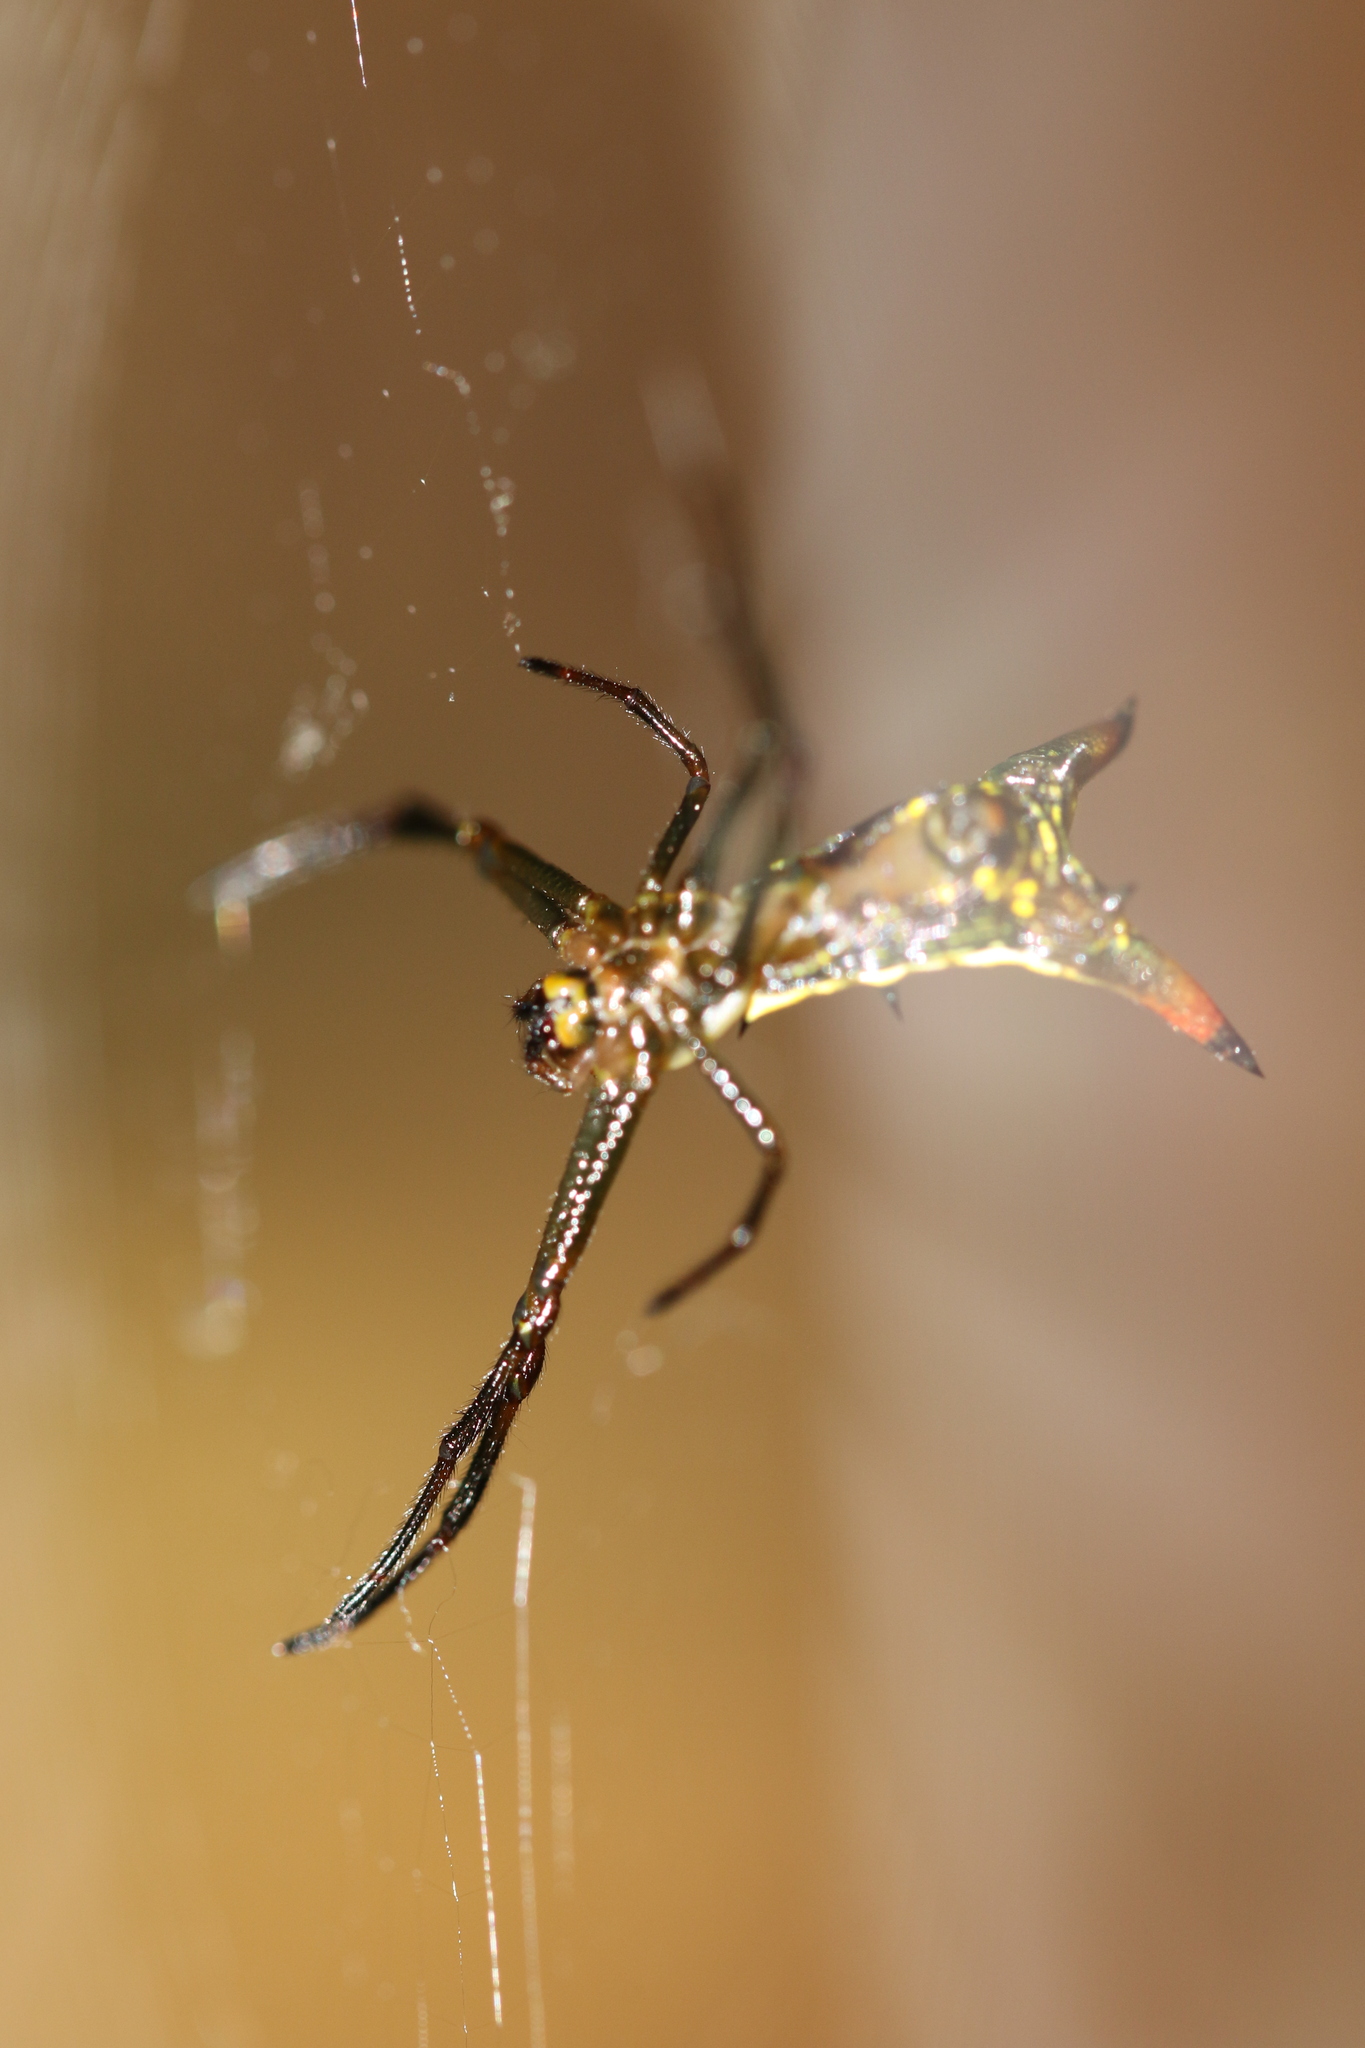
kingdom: Animalia
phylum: Arthropoda
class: Arachnida
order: Araneae
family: Araneidae
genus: Micrathena
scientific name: Micrathena crassispina
